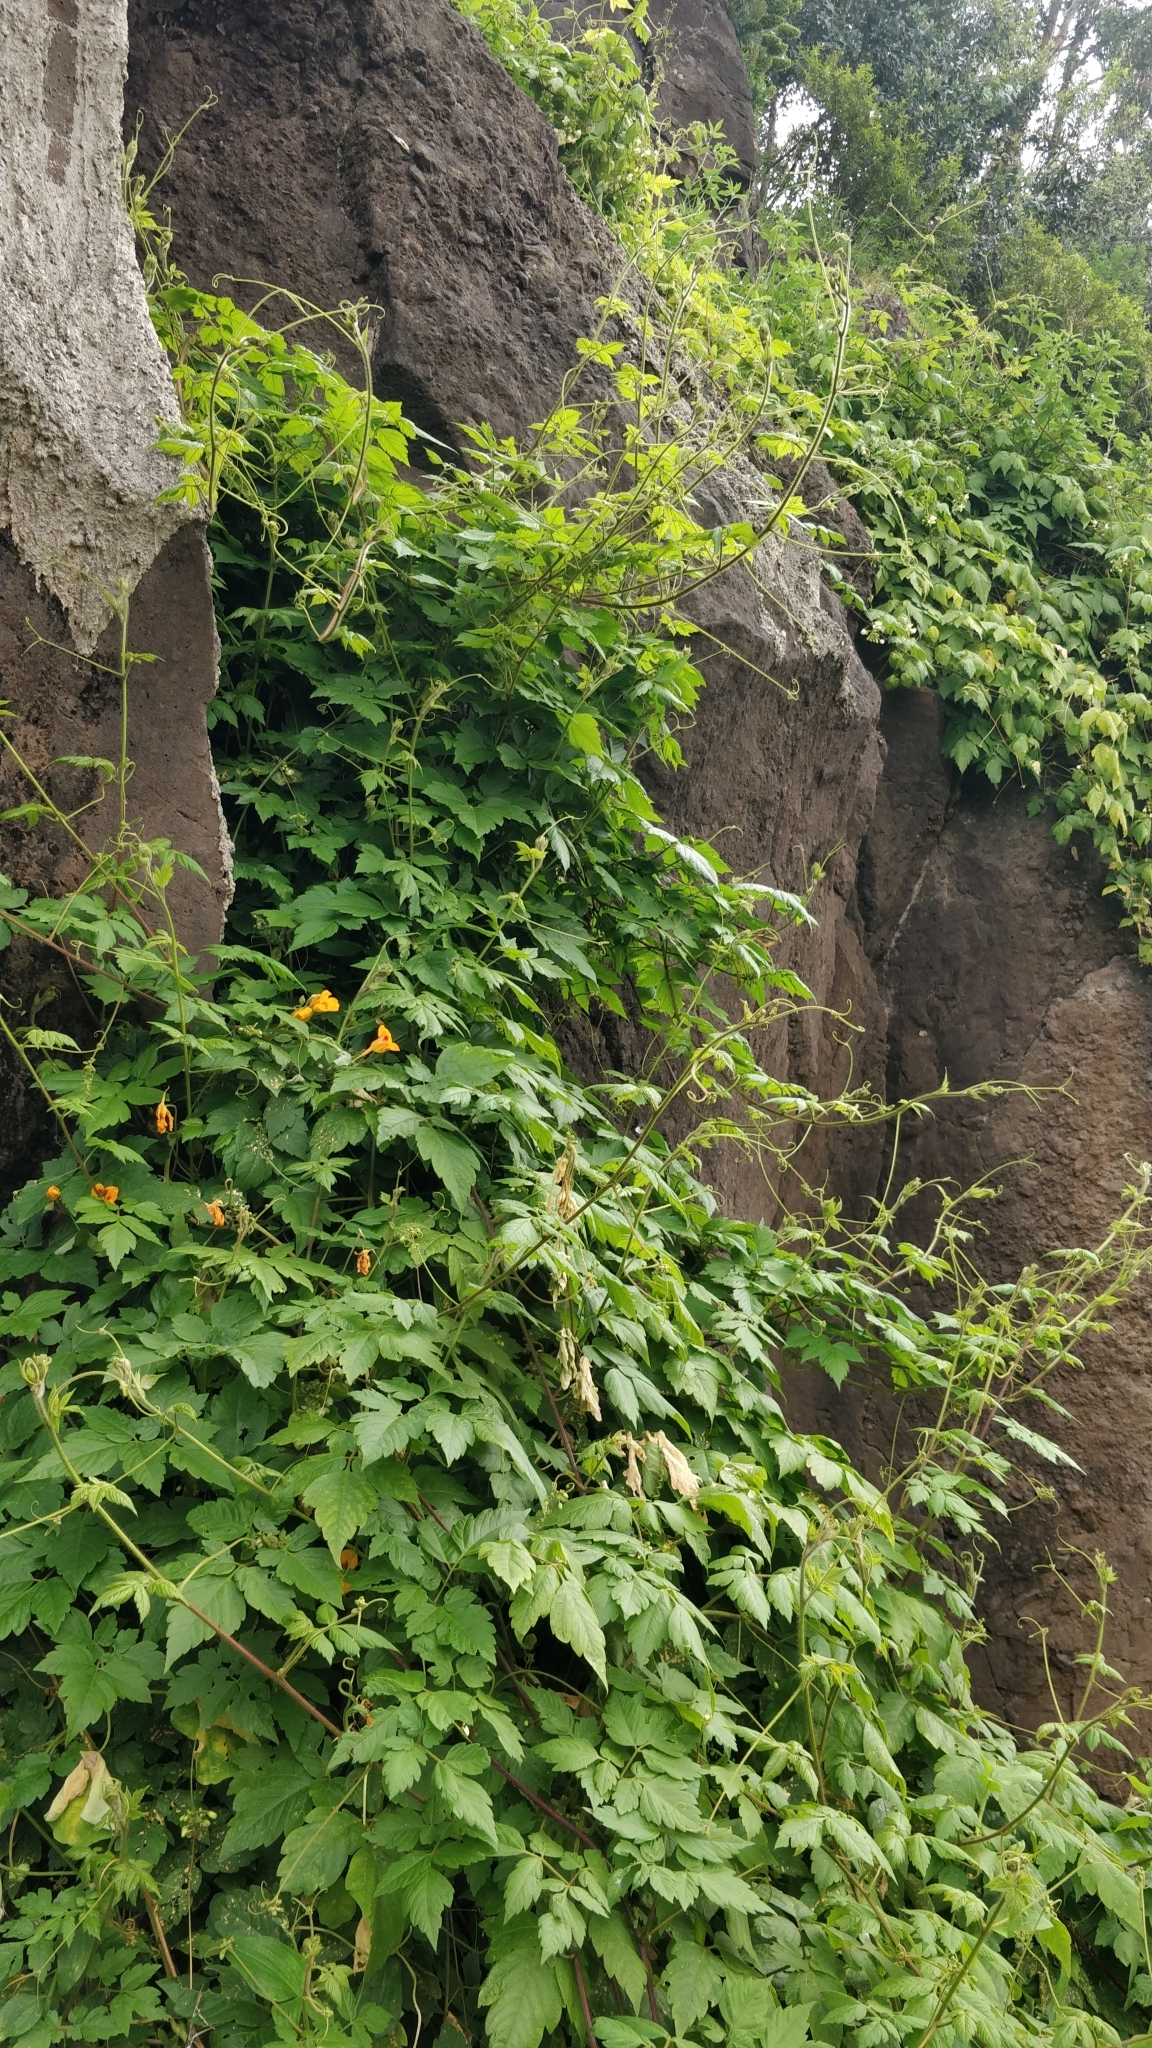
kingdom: Plantae
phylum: Tracheophyta
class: Magnoliopsida
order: Sapindales
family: Sapindaceae
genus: Cardiospermum
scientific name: Cardiospermum grandiflorum
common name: Balloon vine
